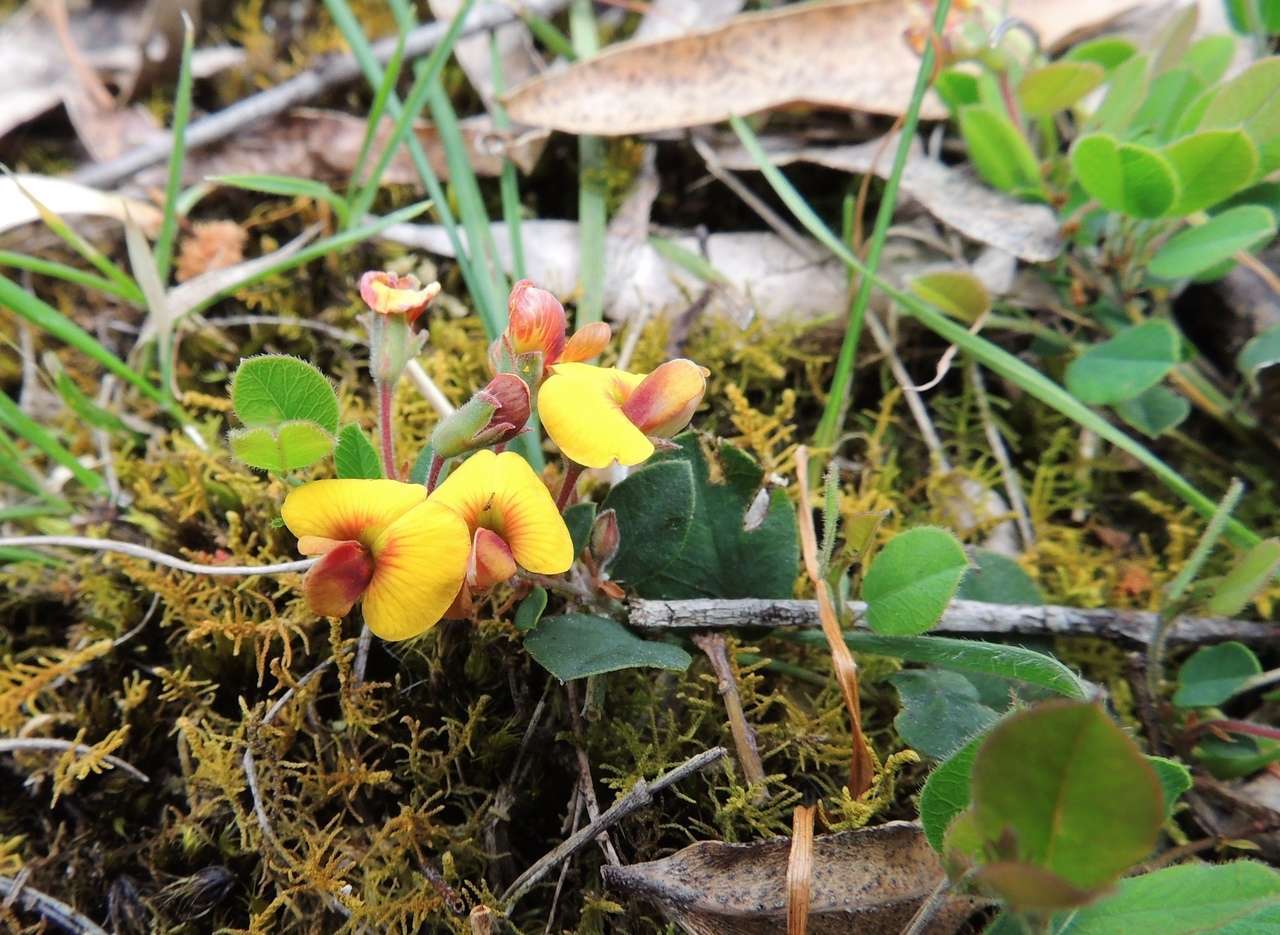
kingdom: Plantae
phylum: Tracheophyta
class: Magnoliopsida
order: Fabales
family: Fabaceae
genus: Bossiaea
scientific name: Bossiaea prostrata
